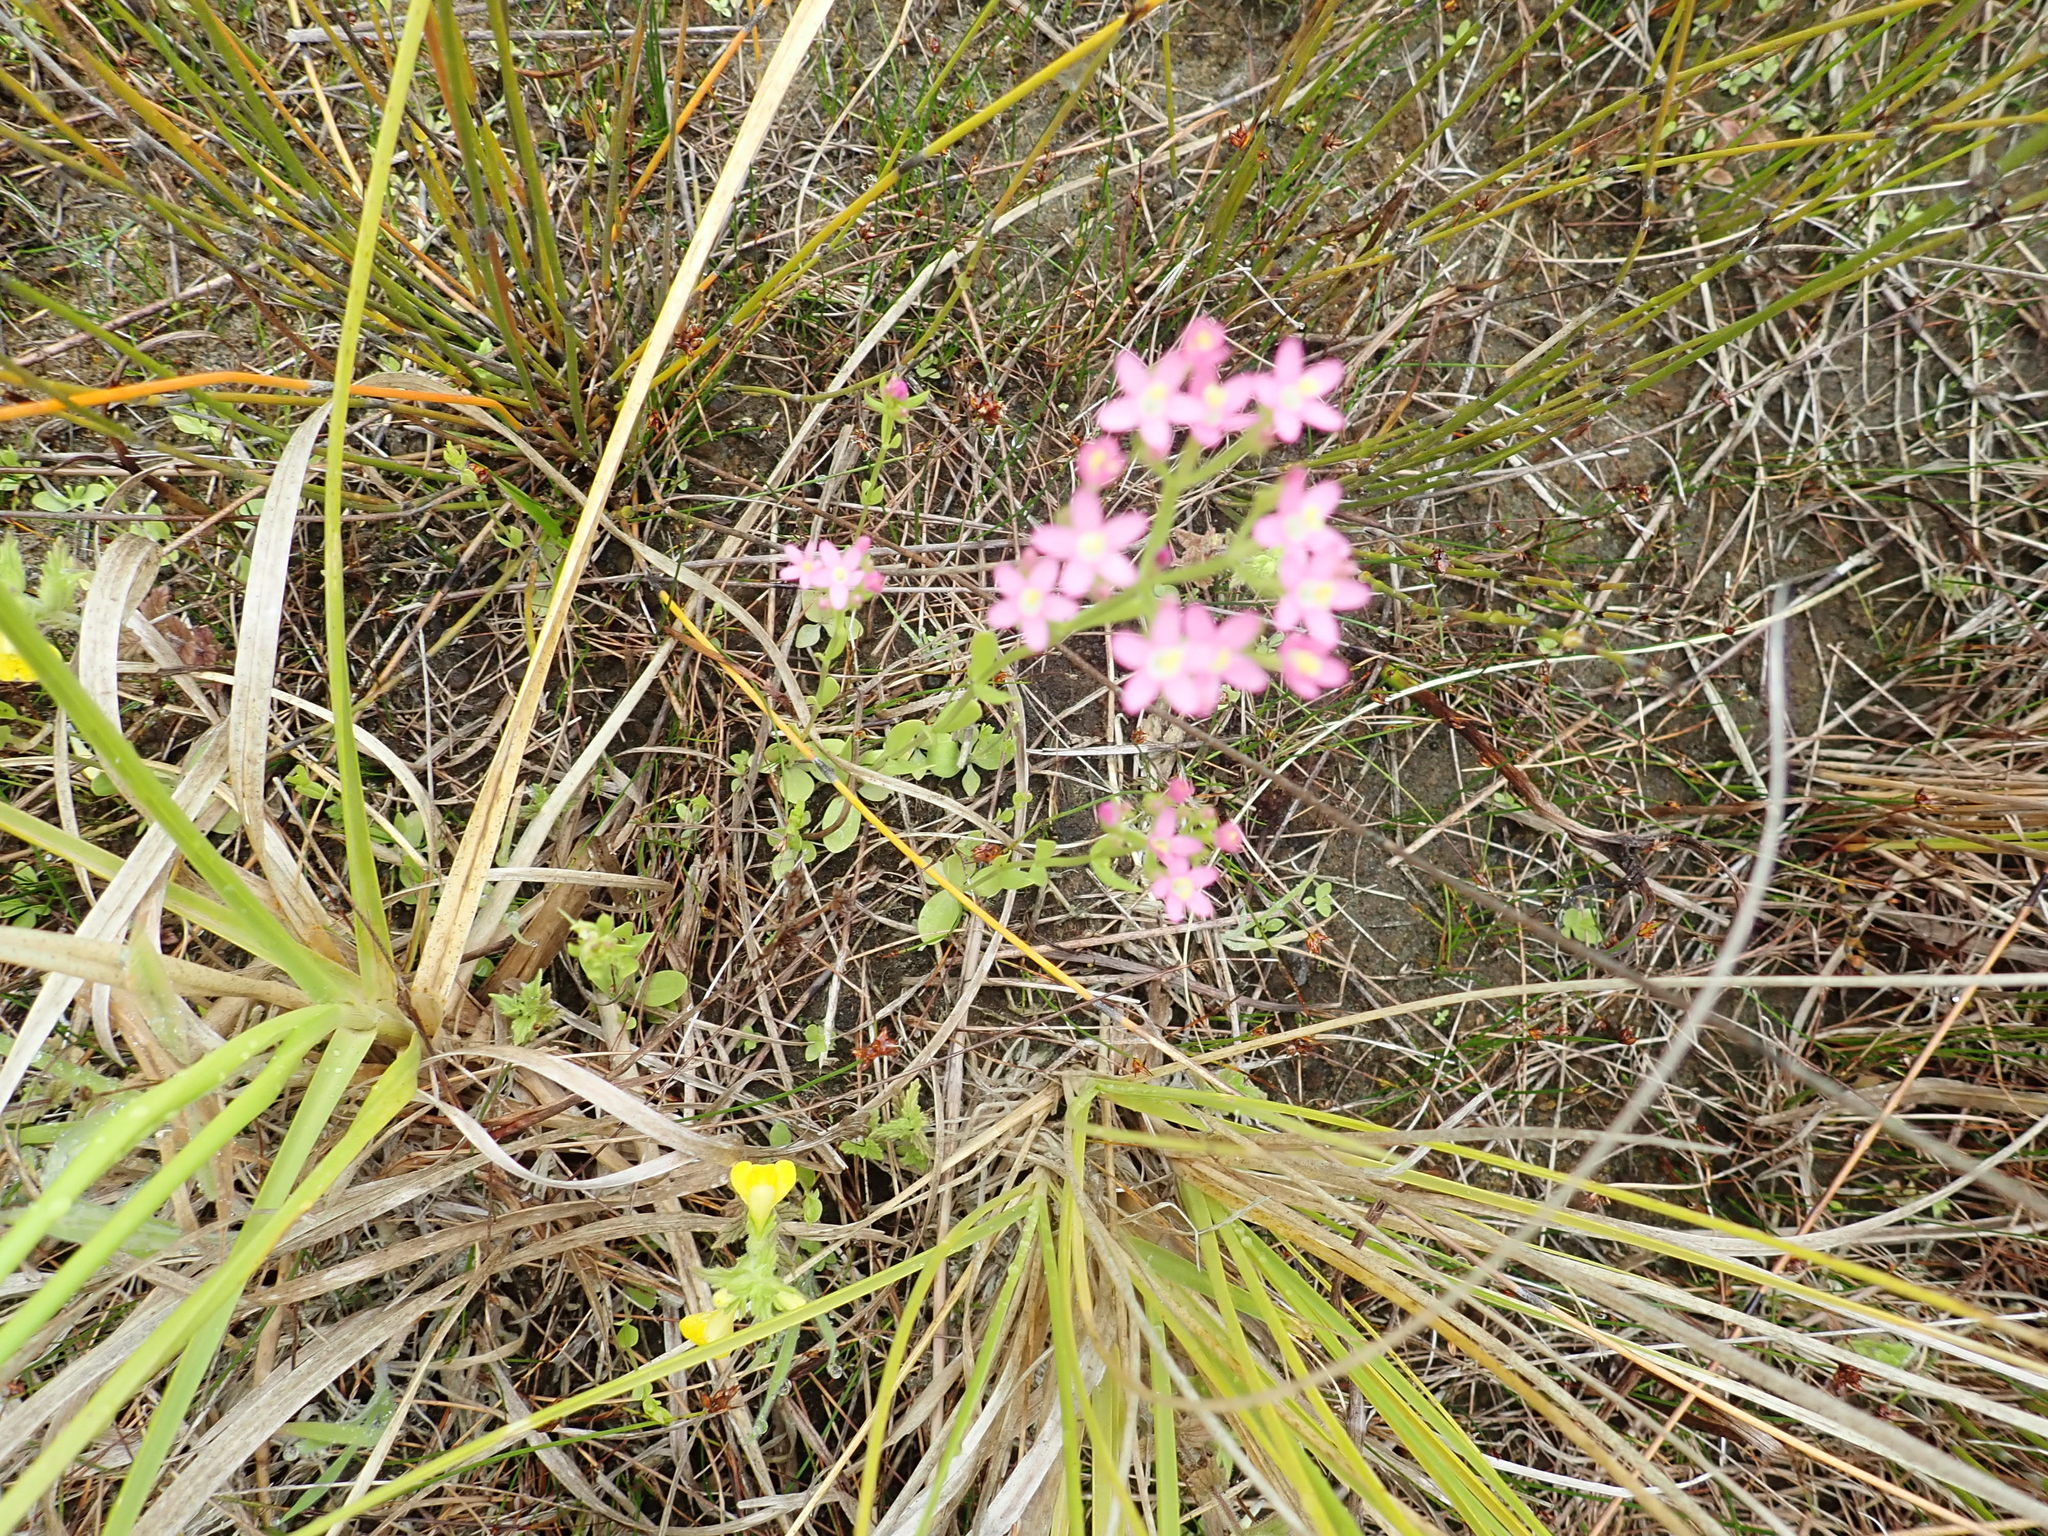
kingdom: Plantae
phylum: Tracheophyta
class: Magnoliopsida
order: Gentianales
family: Gentianaceae
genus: Centaurium
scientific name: Centaurium erythraea
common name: Common centaury
